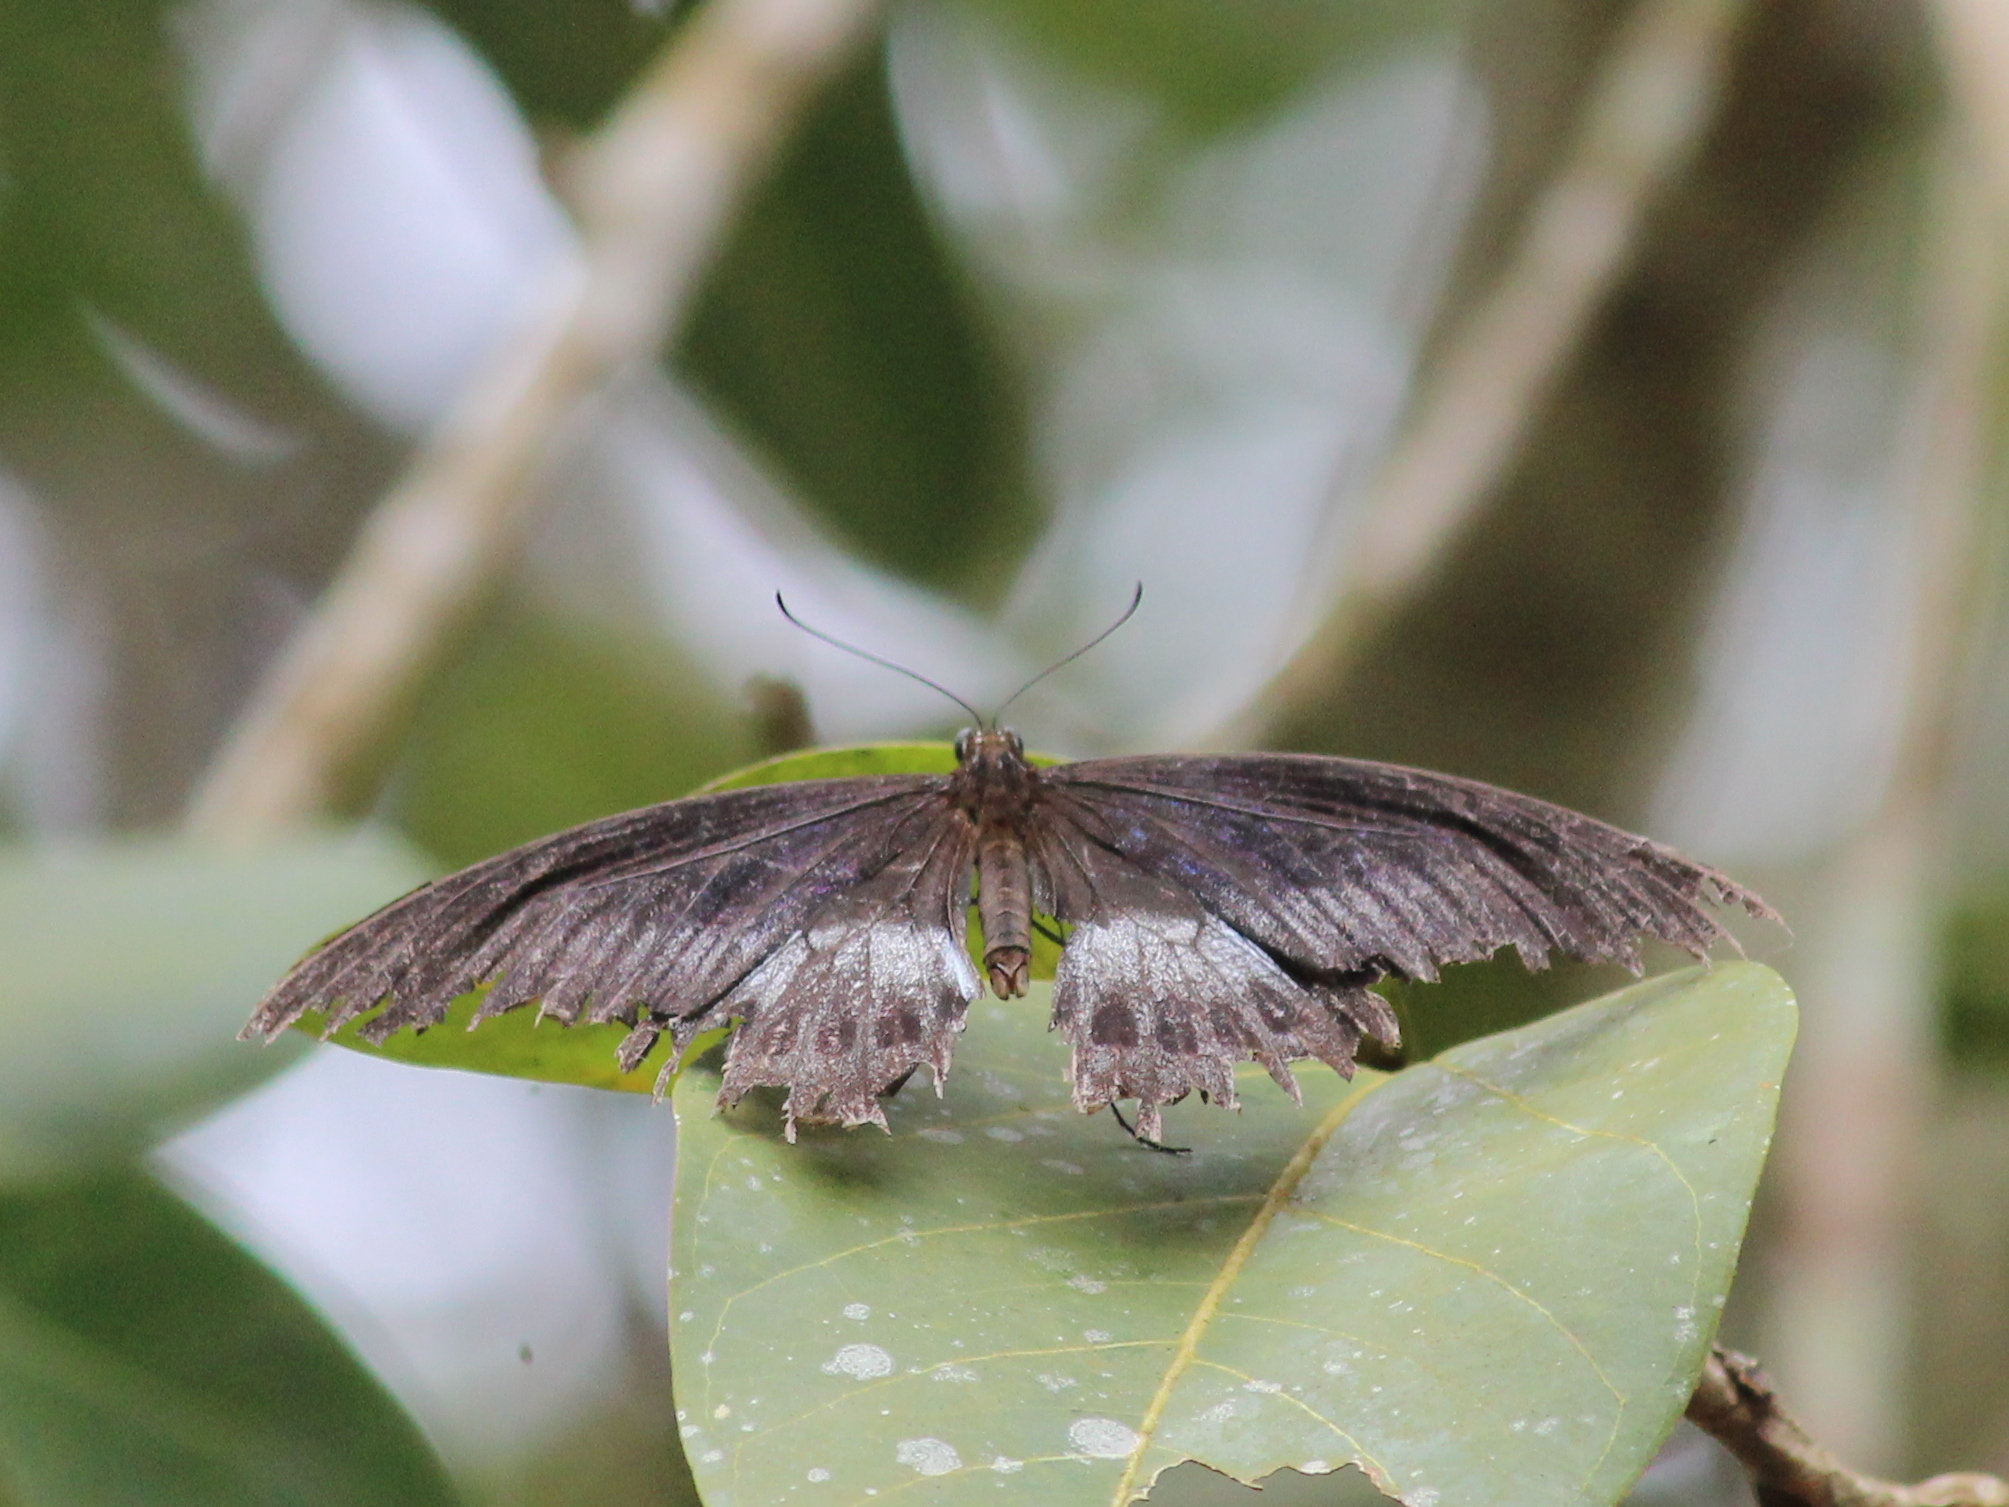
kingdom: Animalia
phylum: Arthropoda
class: Insecta
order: Lepidoptera
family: Papilionidae
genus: Papilio
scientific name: Papilio memnon
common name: Great mormon
